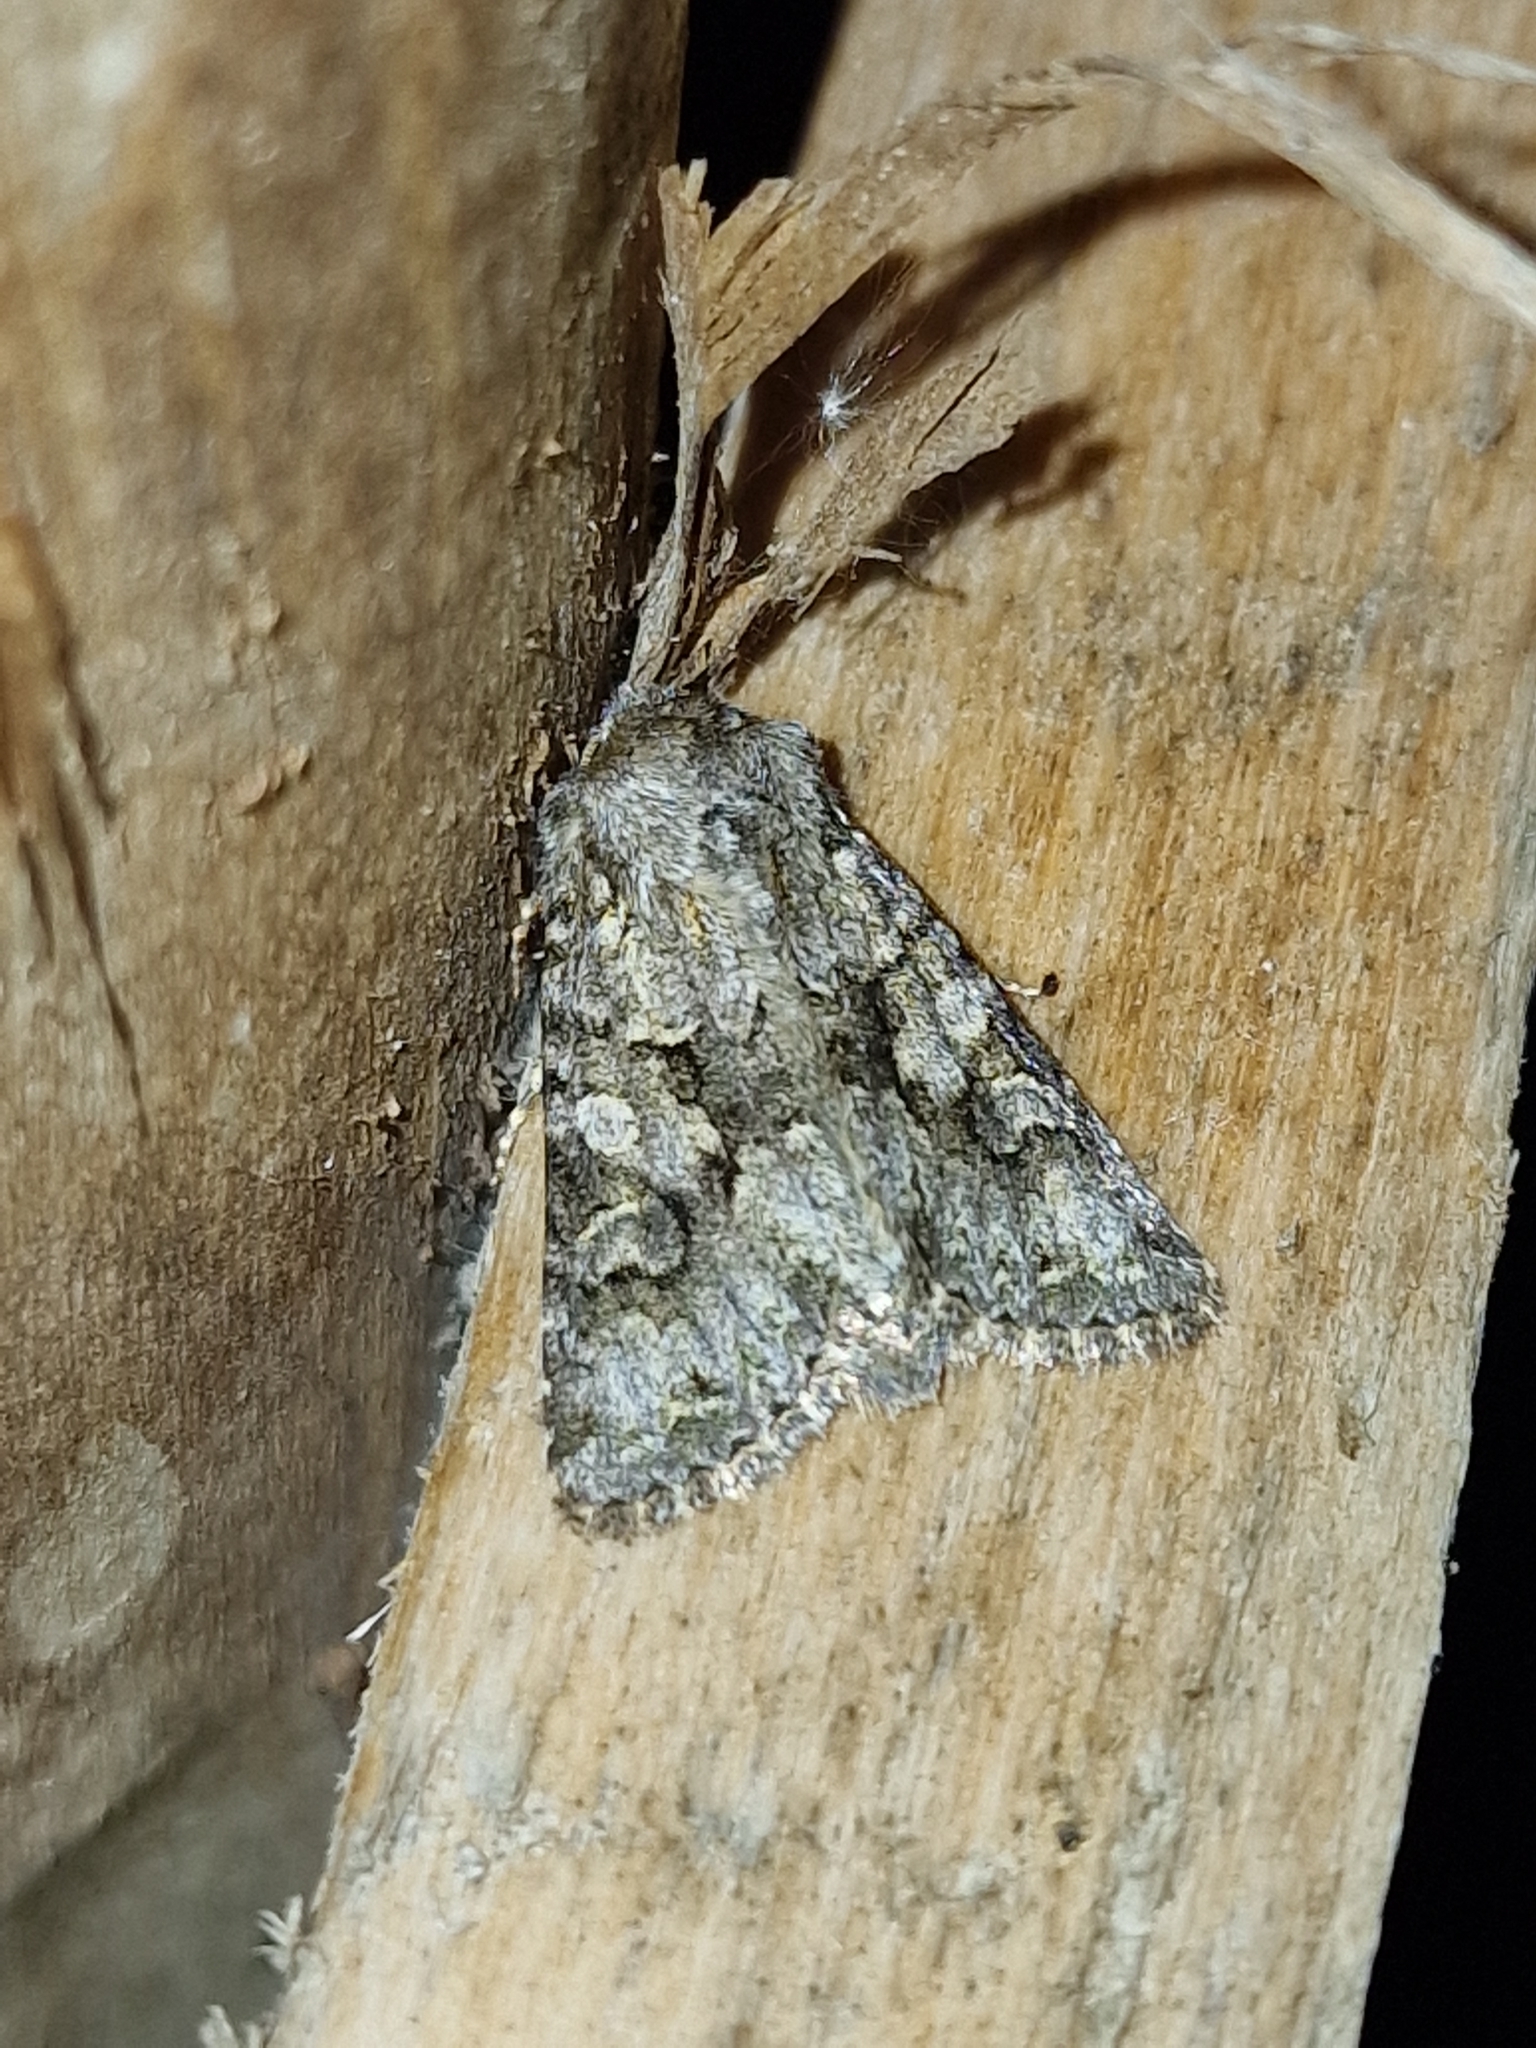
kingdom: Animalia
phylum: Arthropoda
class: Insecta
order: Lepidoptera
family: Noctuidae
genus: Hada
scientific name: Hada plebeja
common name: Shears
